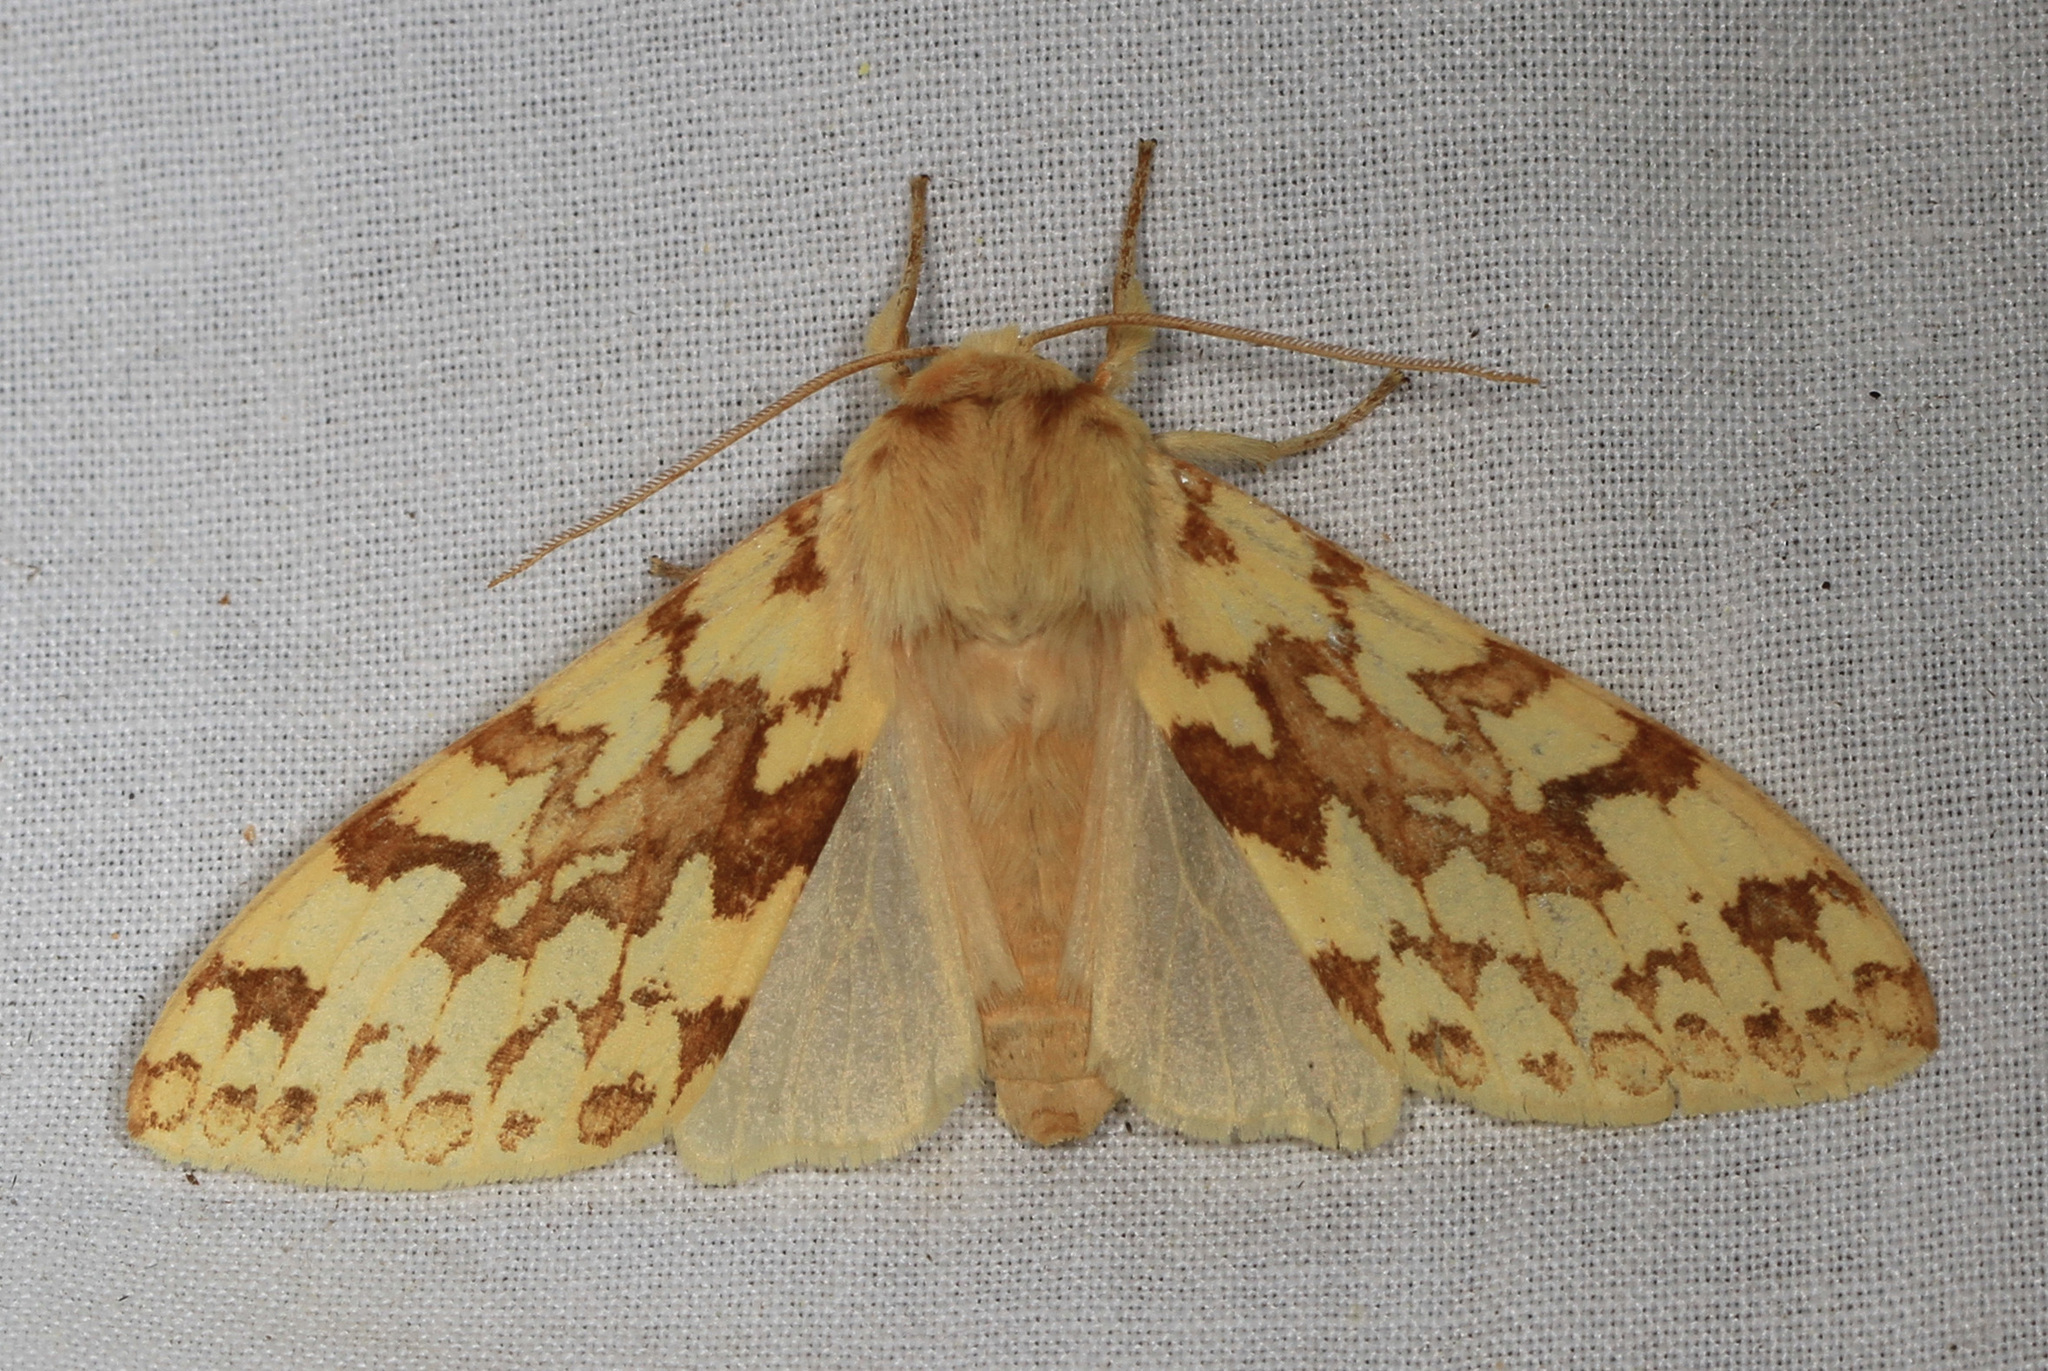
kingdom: Animalia
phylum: Arthropoda
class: Insecta
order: Lepidoptera
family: Erebidae
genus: Lophocampa
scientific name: Lophocampa maculata
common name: Spotted tussock moth
